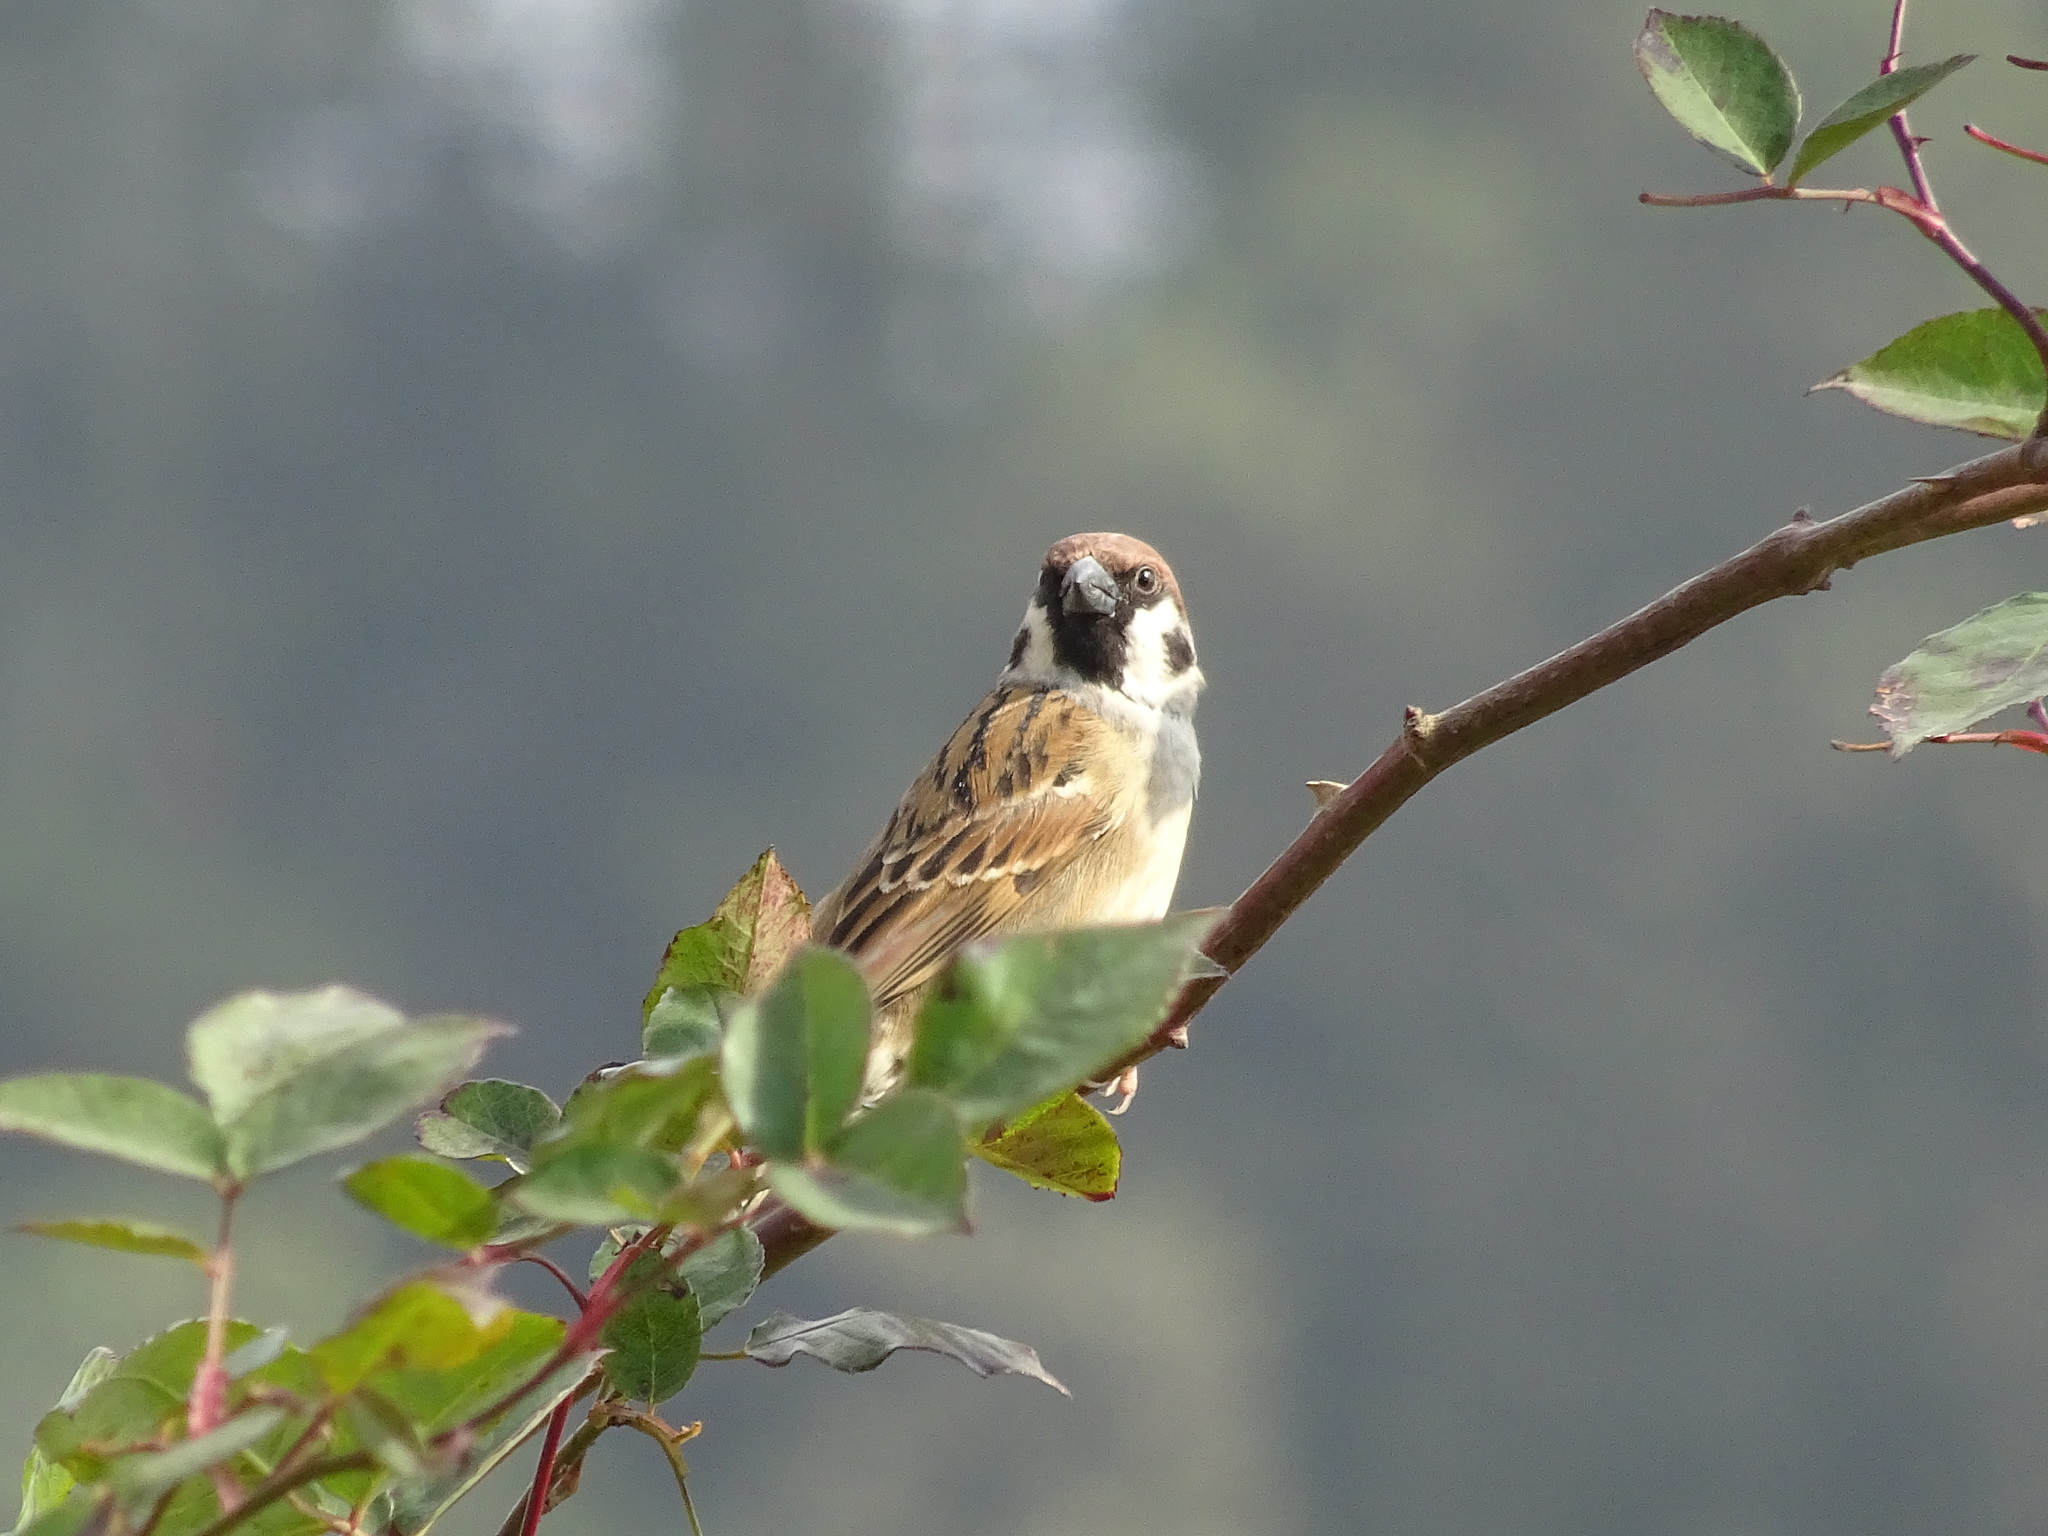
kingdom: Animalia
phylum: Chordata
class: Aves
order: Passeriformes
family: Passeridae
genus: Passer
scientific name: Passer montanus
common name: Eurasian tree sparrow
